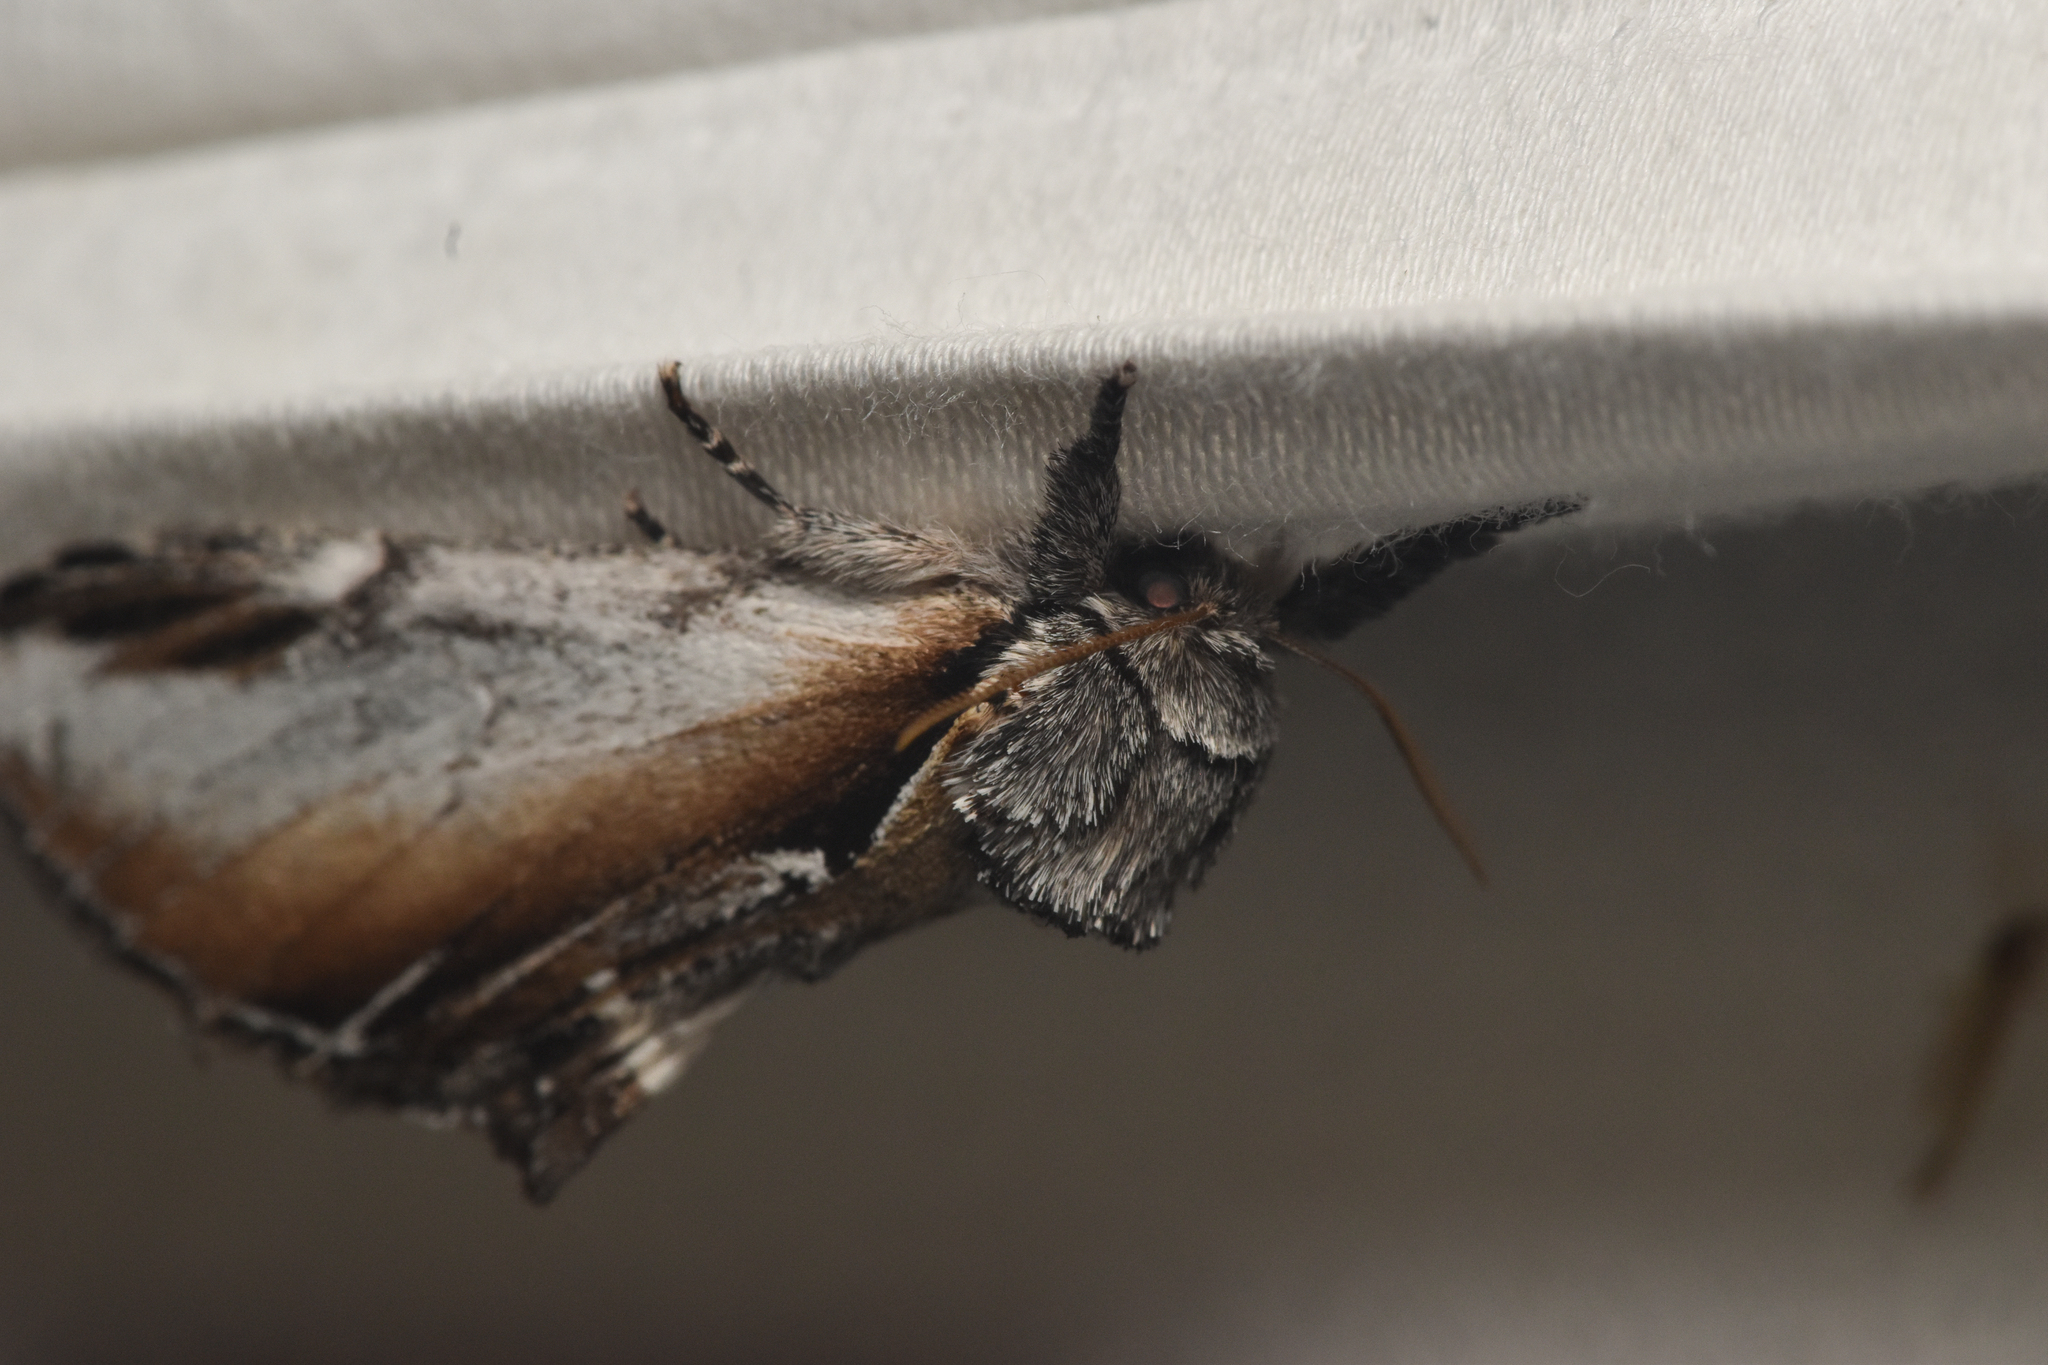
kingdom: Animalia
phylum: Arthropoda
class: Insecta
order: Lepidoptera
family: Notodontidae
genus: Pheosia
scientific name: Pheosia rimosa
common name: Black-rimmed prominent
